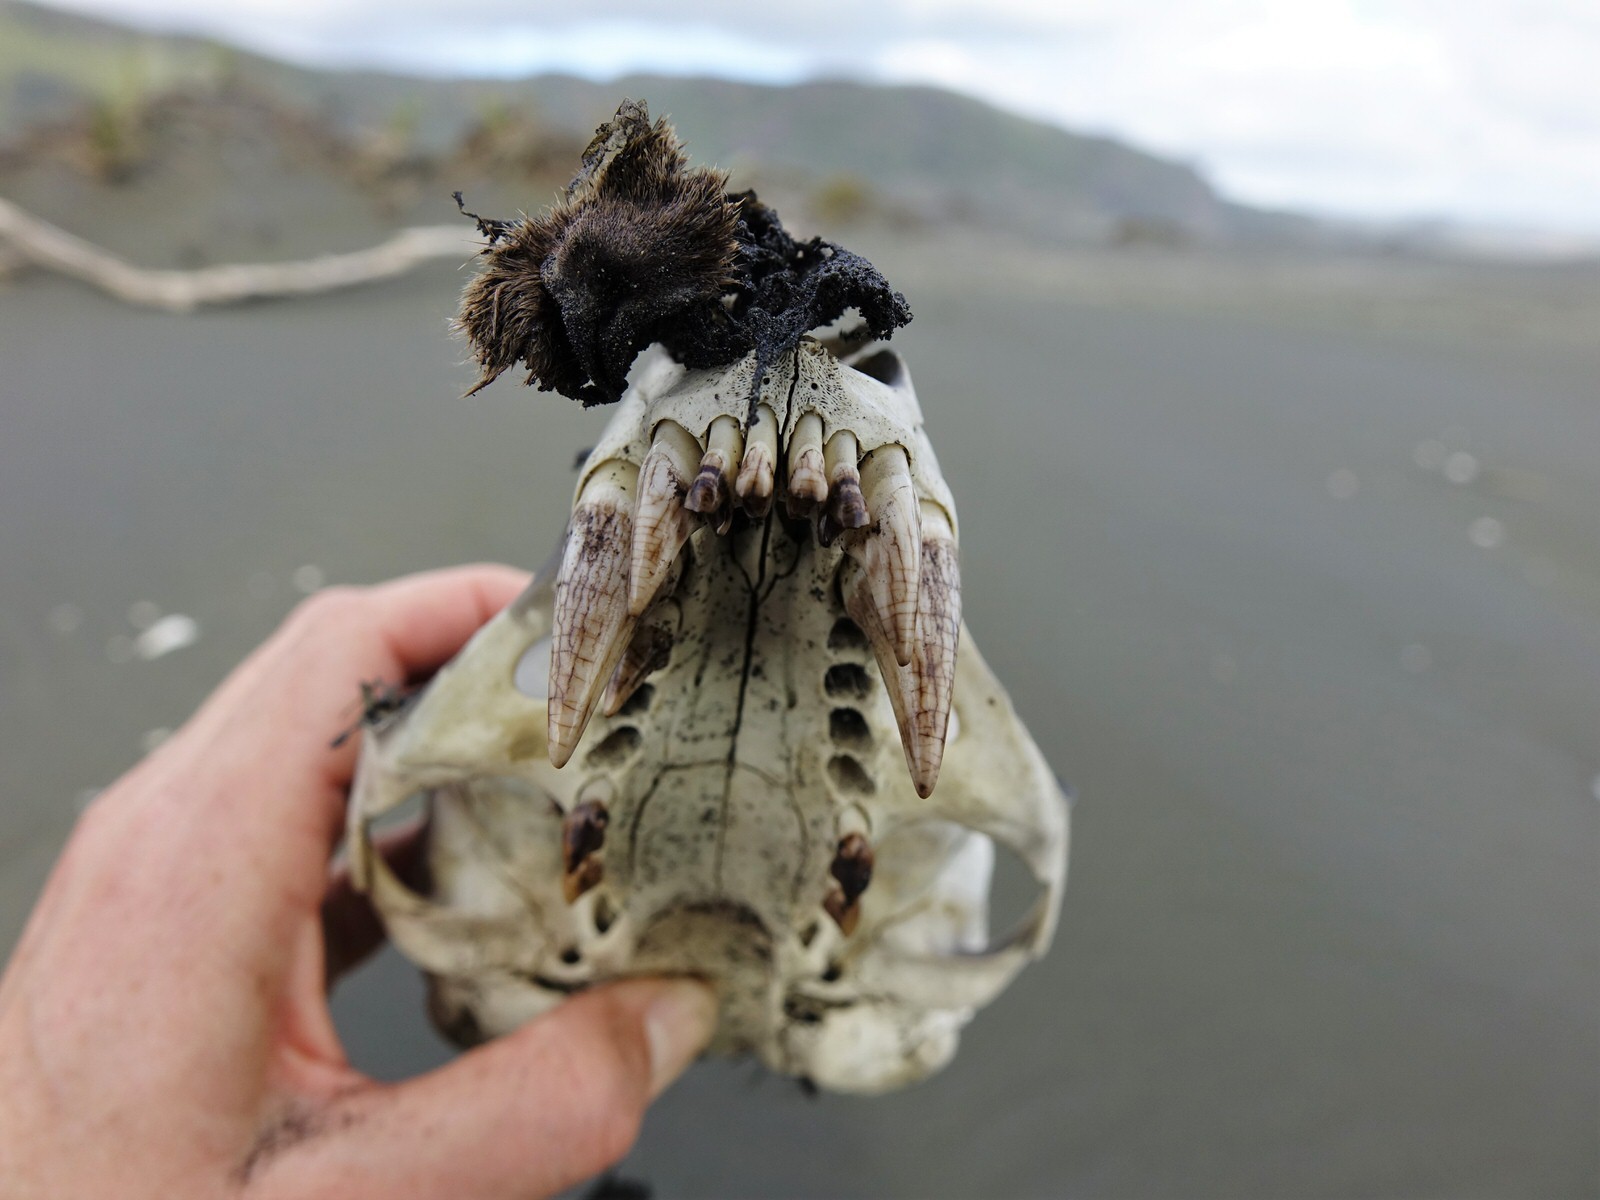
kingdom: Animalia
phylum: Chordata
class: Mammalia
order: Carnivora
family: Otariidae
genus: Arctocephalus
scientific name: Arctocephalus forsteri
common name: New zealand fur seal
